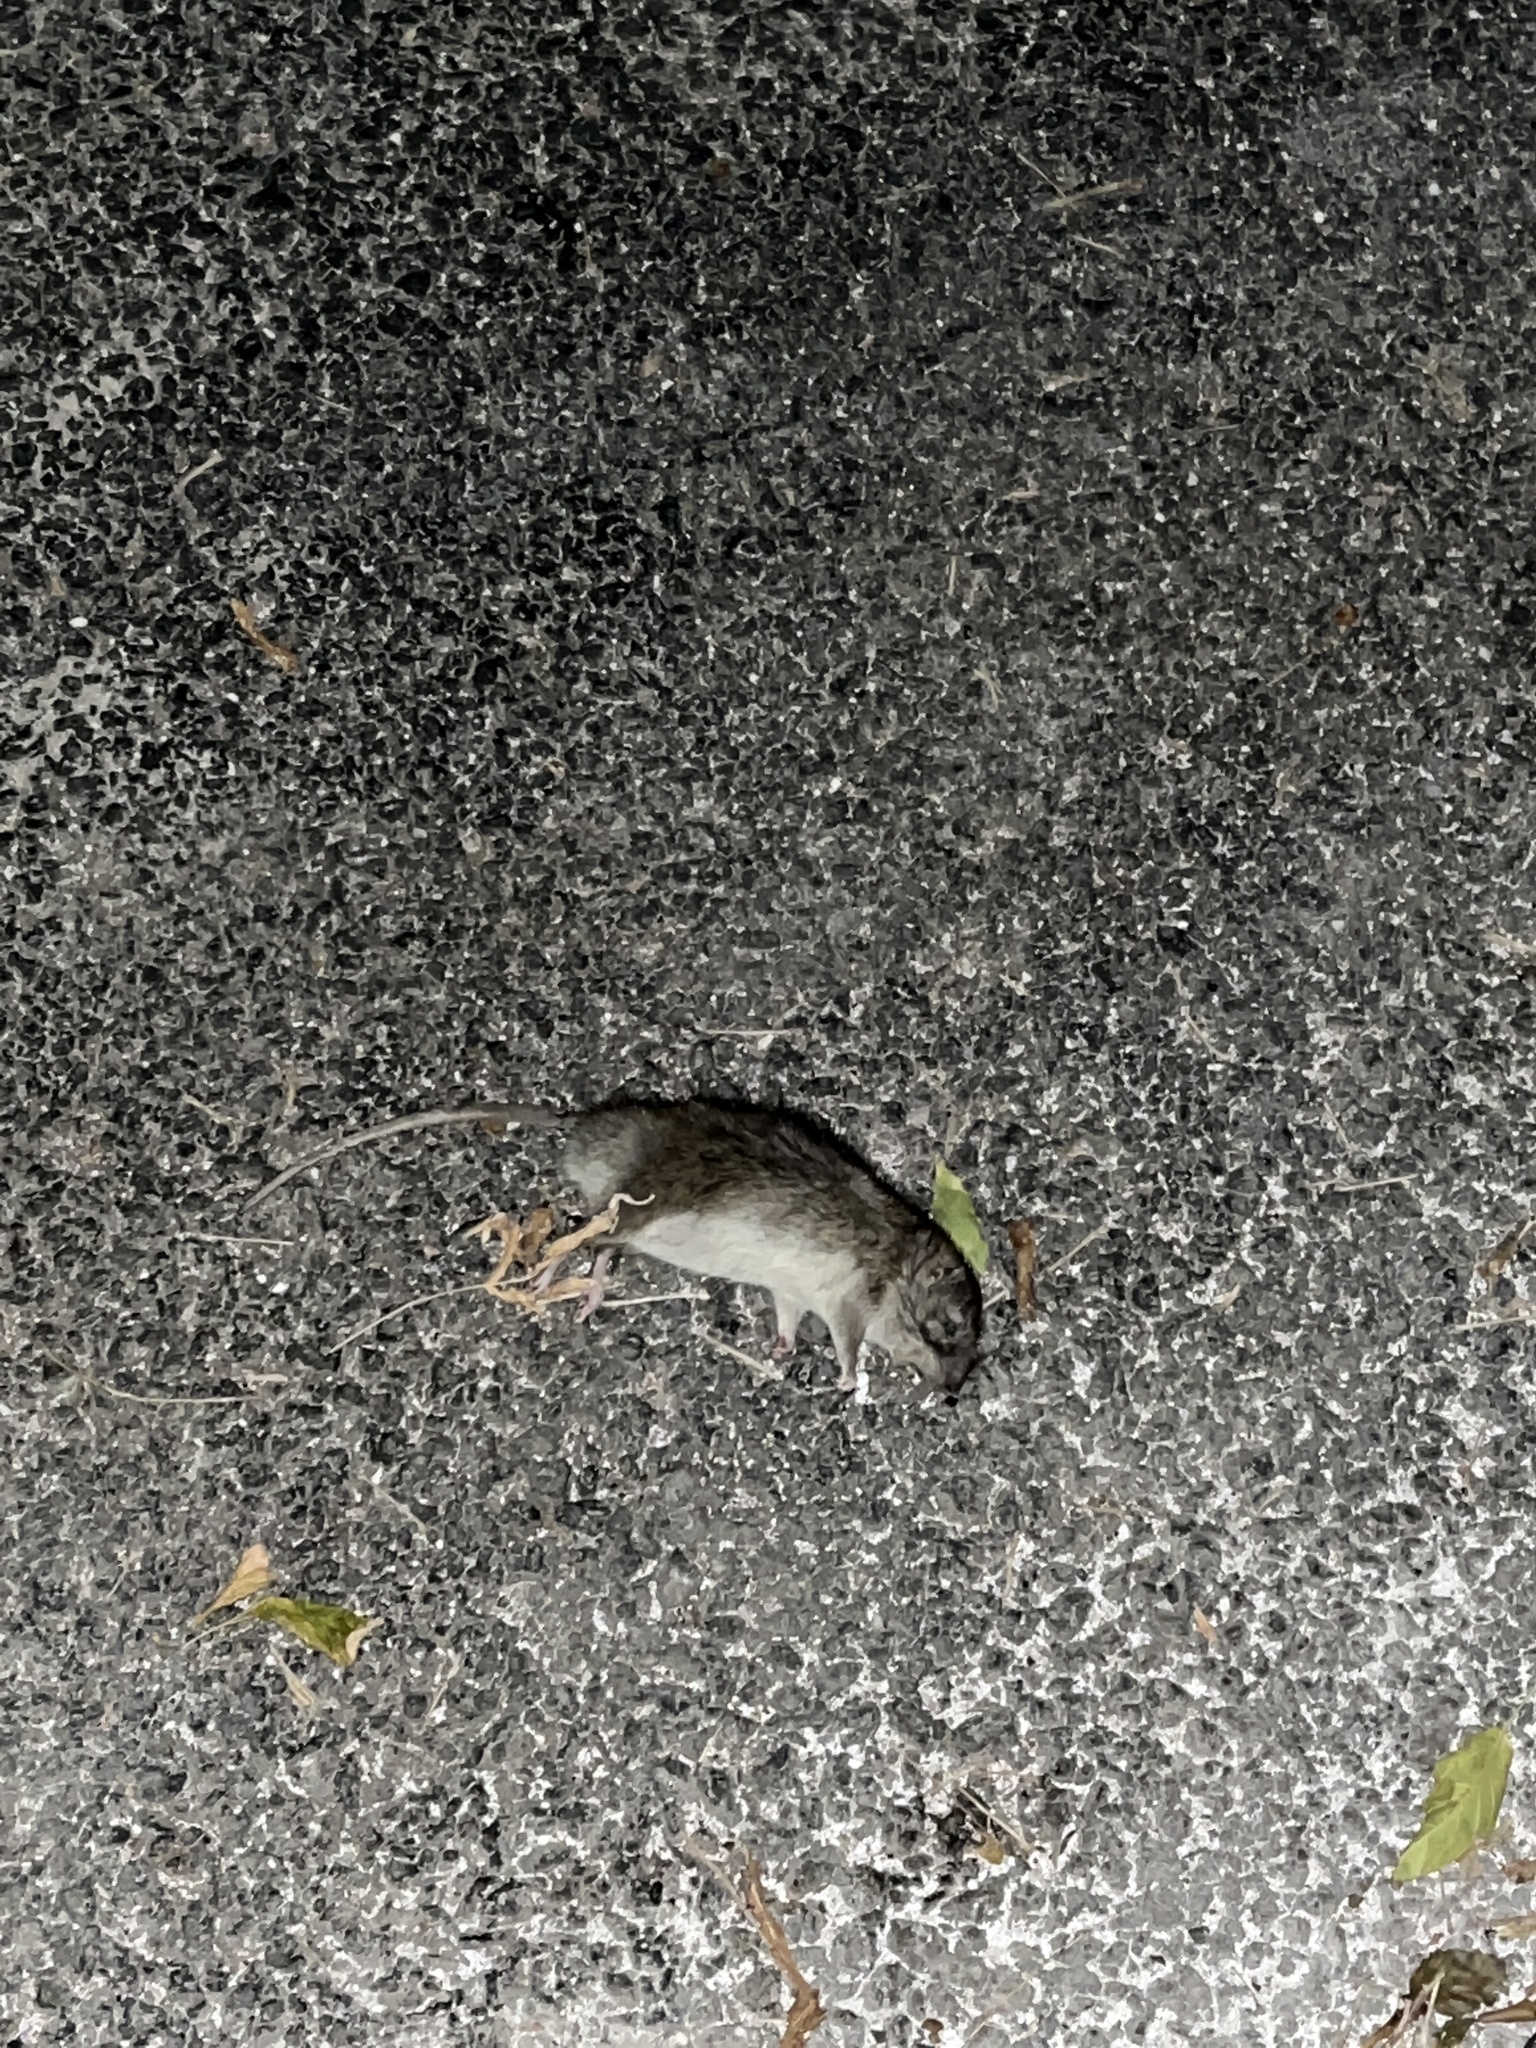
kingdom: Animalia
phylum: Chordata
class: Mammalia
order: Rodentia
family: Muridae
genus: Rattus
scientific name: Rattus norvegicus
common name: Brown rat
